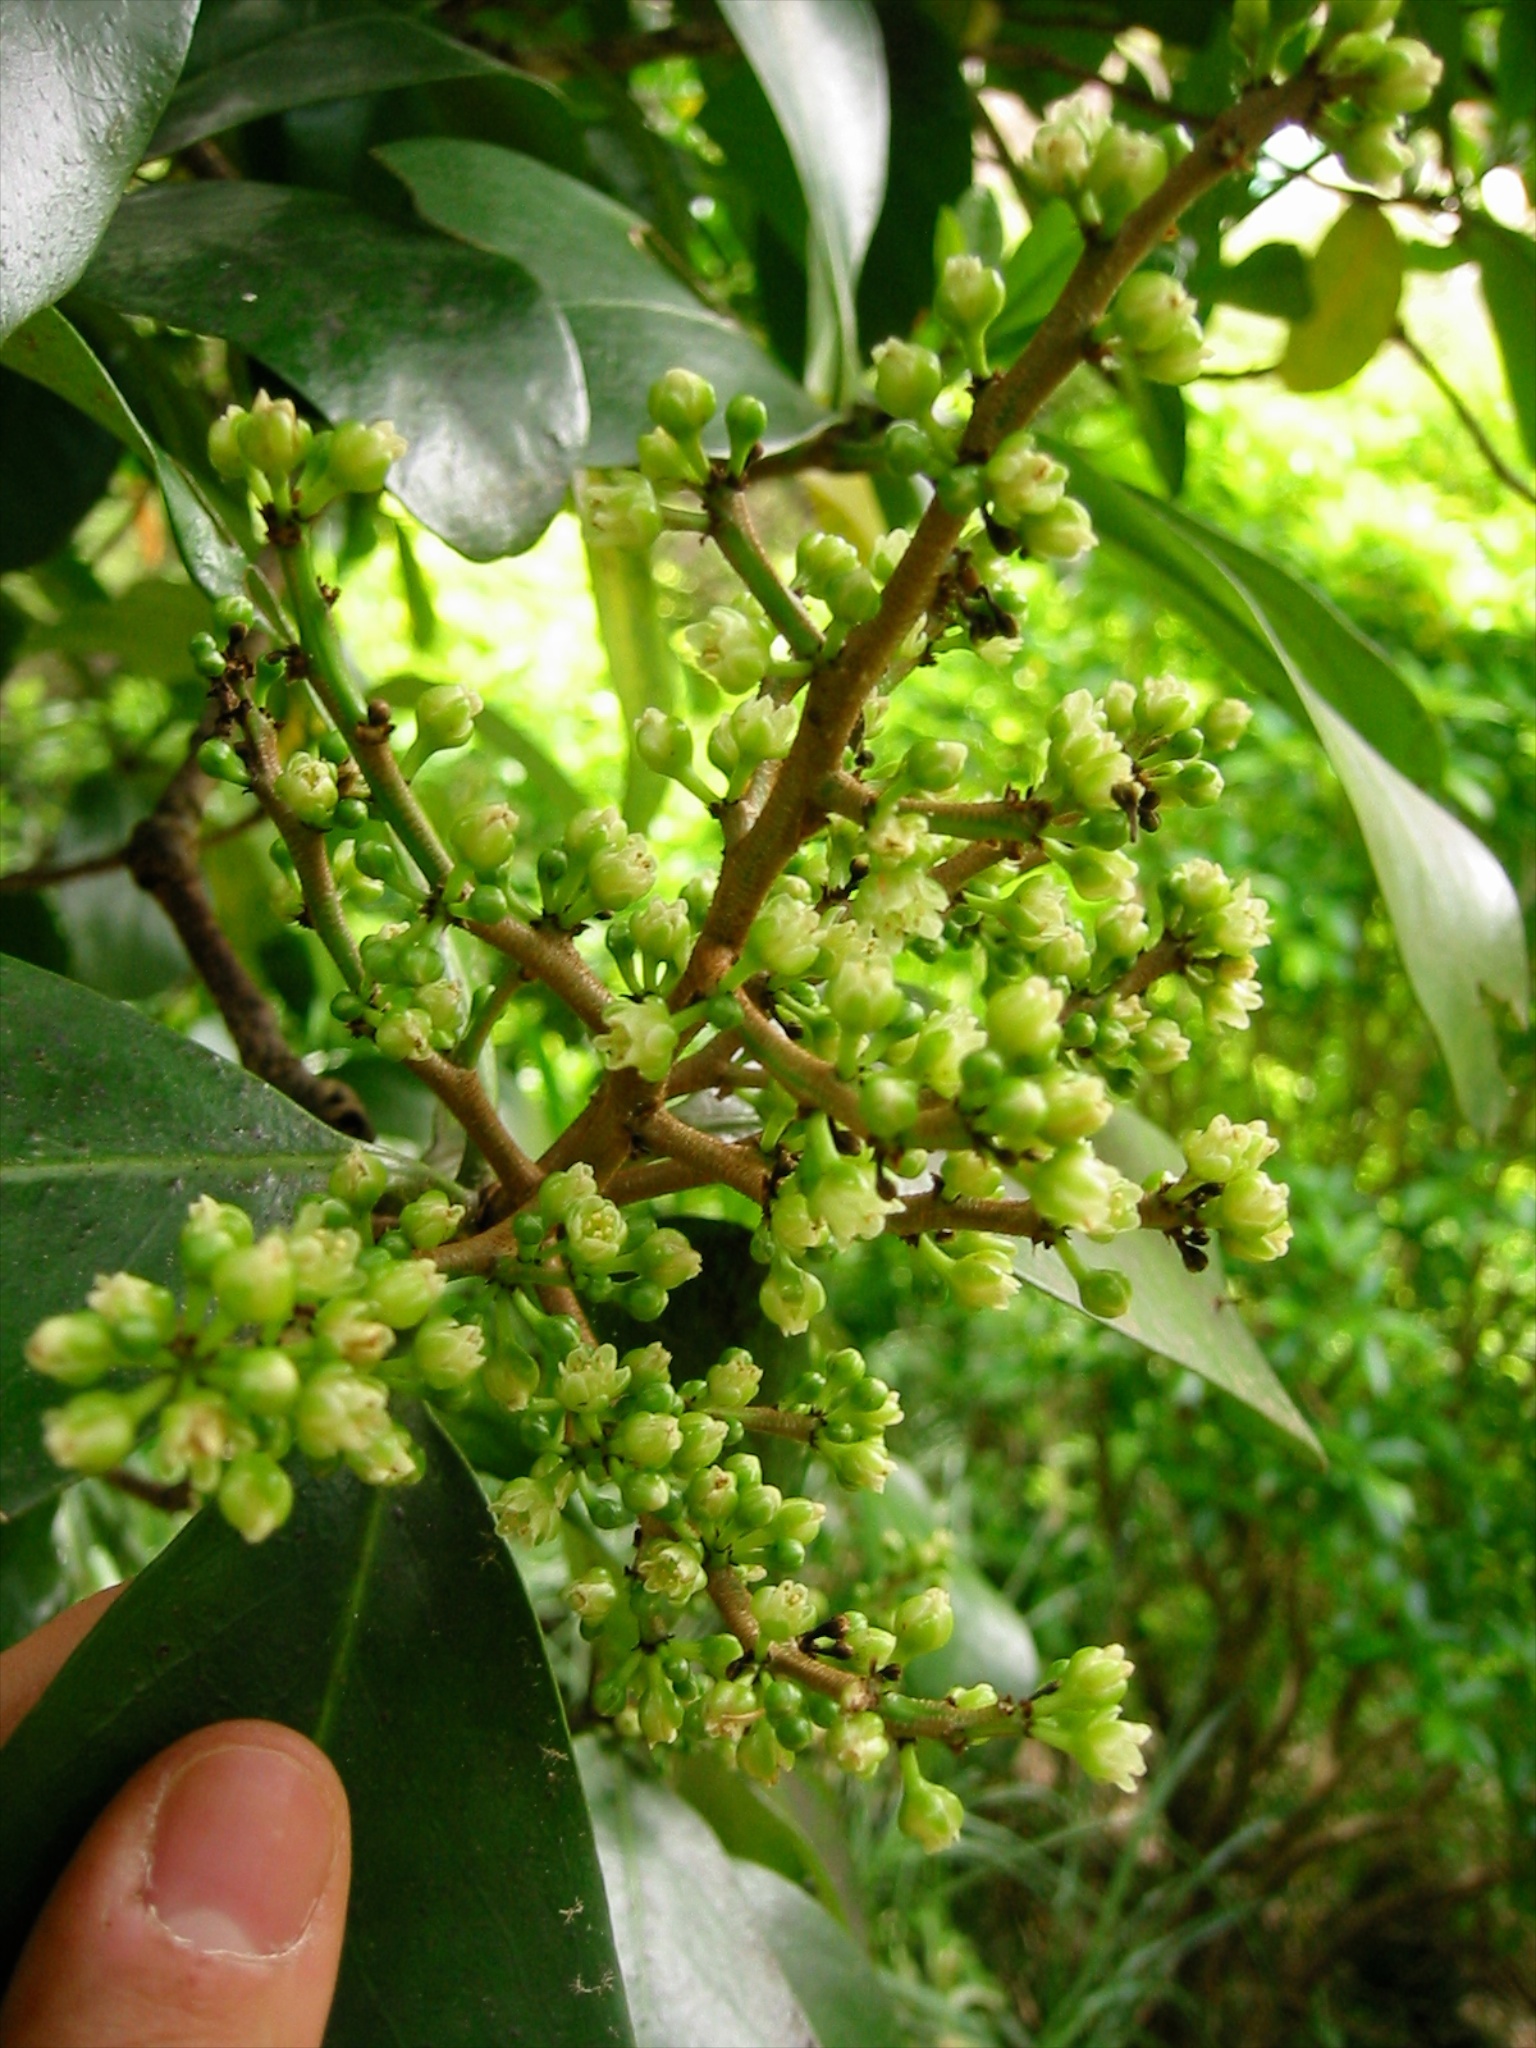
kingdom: Plantae
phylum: Tracheophyta
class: Magnoliopsida
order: Cucurbitales
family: Corynocarpaceae
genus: Corynocarpus
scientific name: Corynocarpus laevigatus
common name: New zealand laurel
